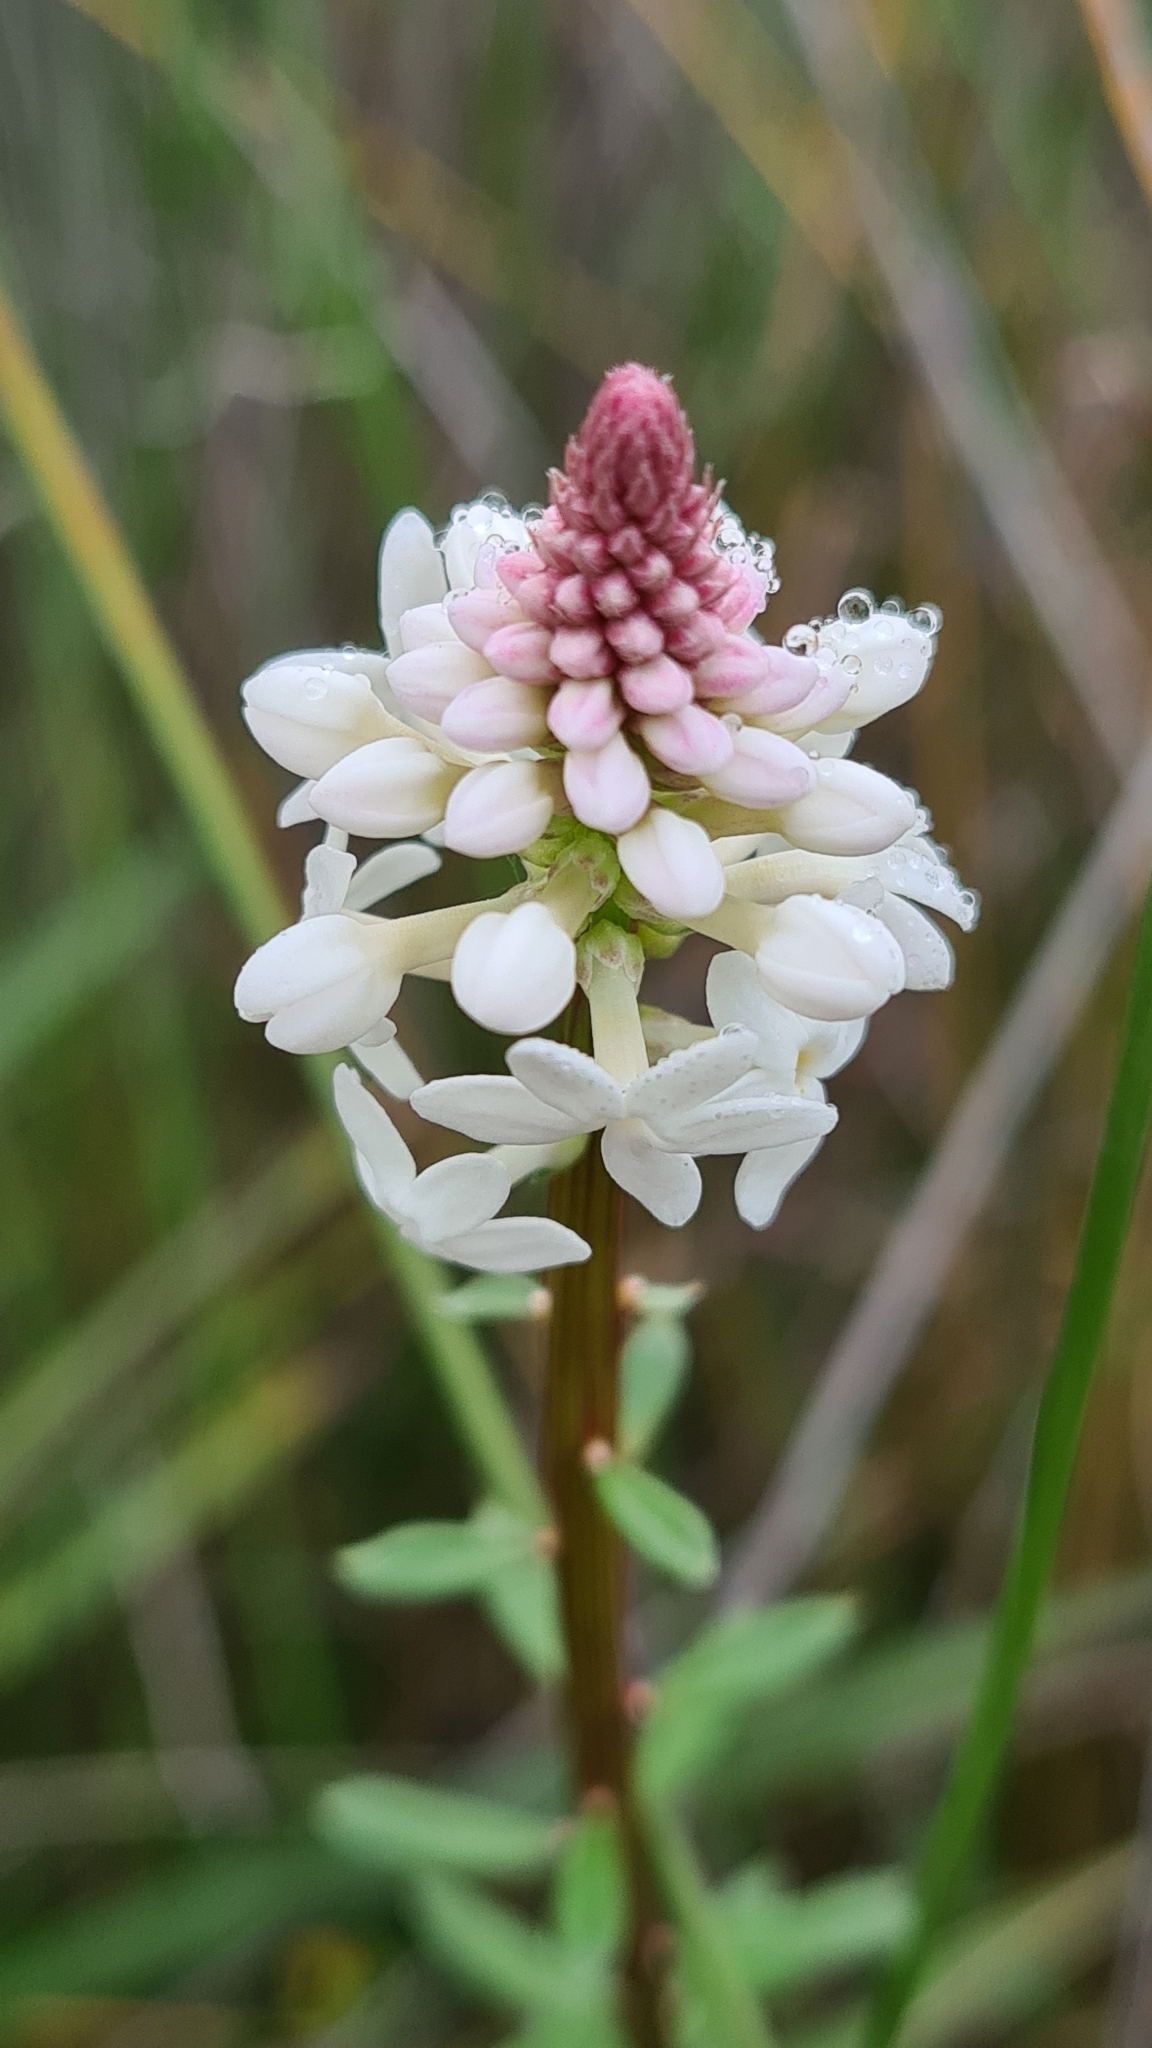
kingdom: Plantae
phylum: Tracheophyta
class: Magnoliopsida
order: Celastrales
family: Celastraceae
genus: Stackhousia
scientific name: Stackhousia monogyna
